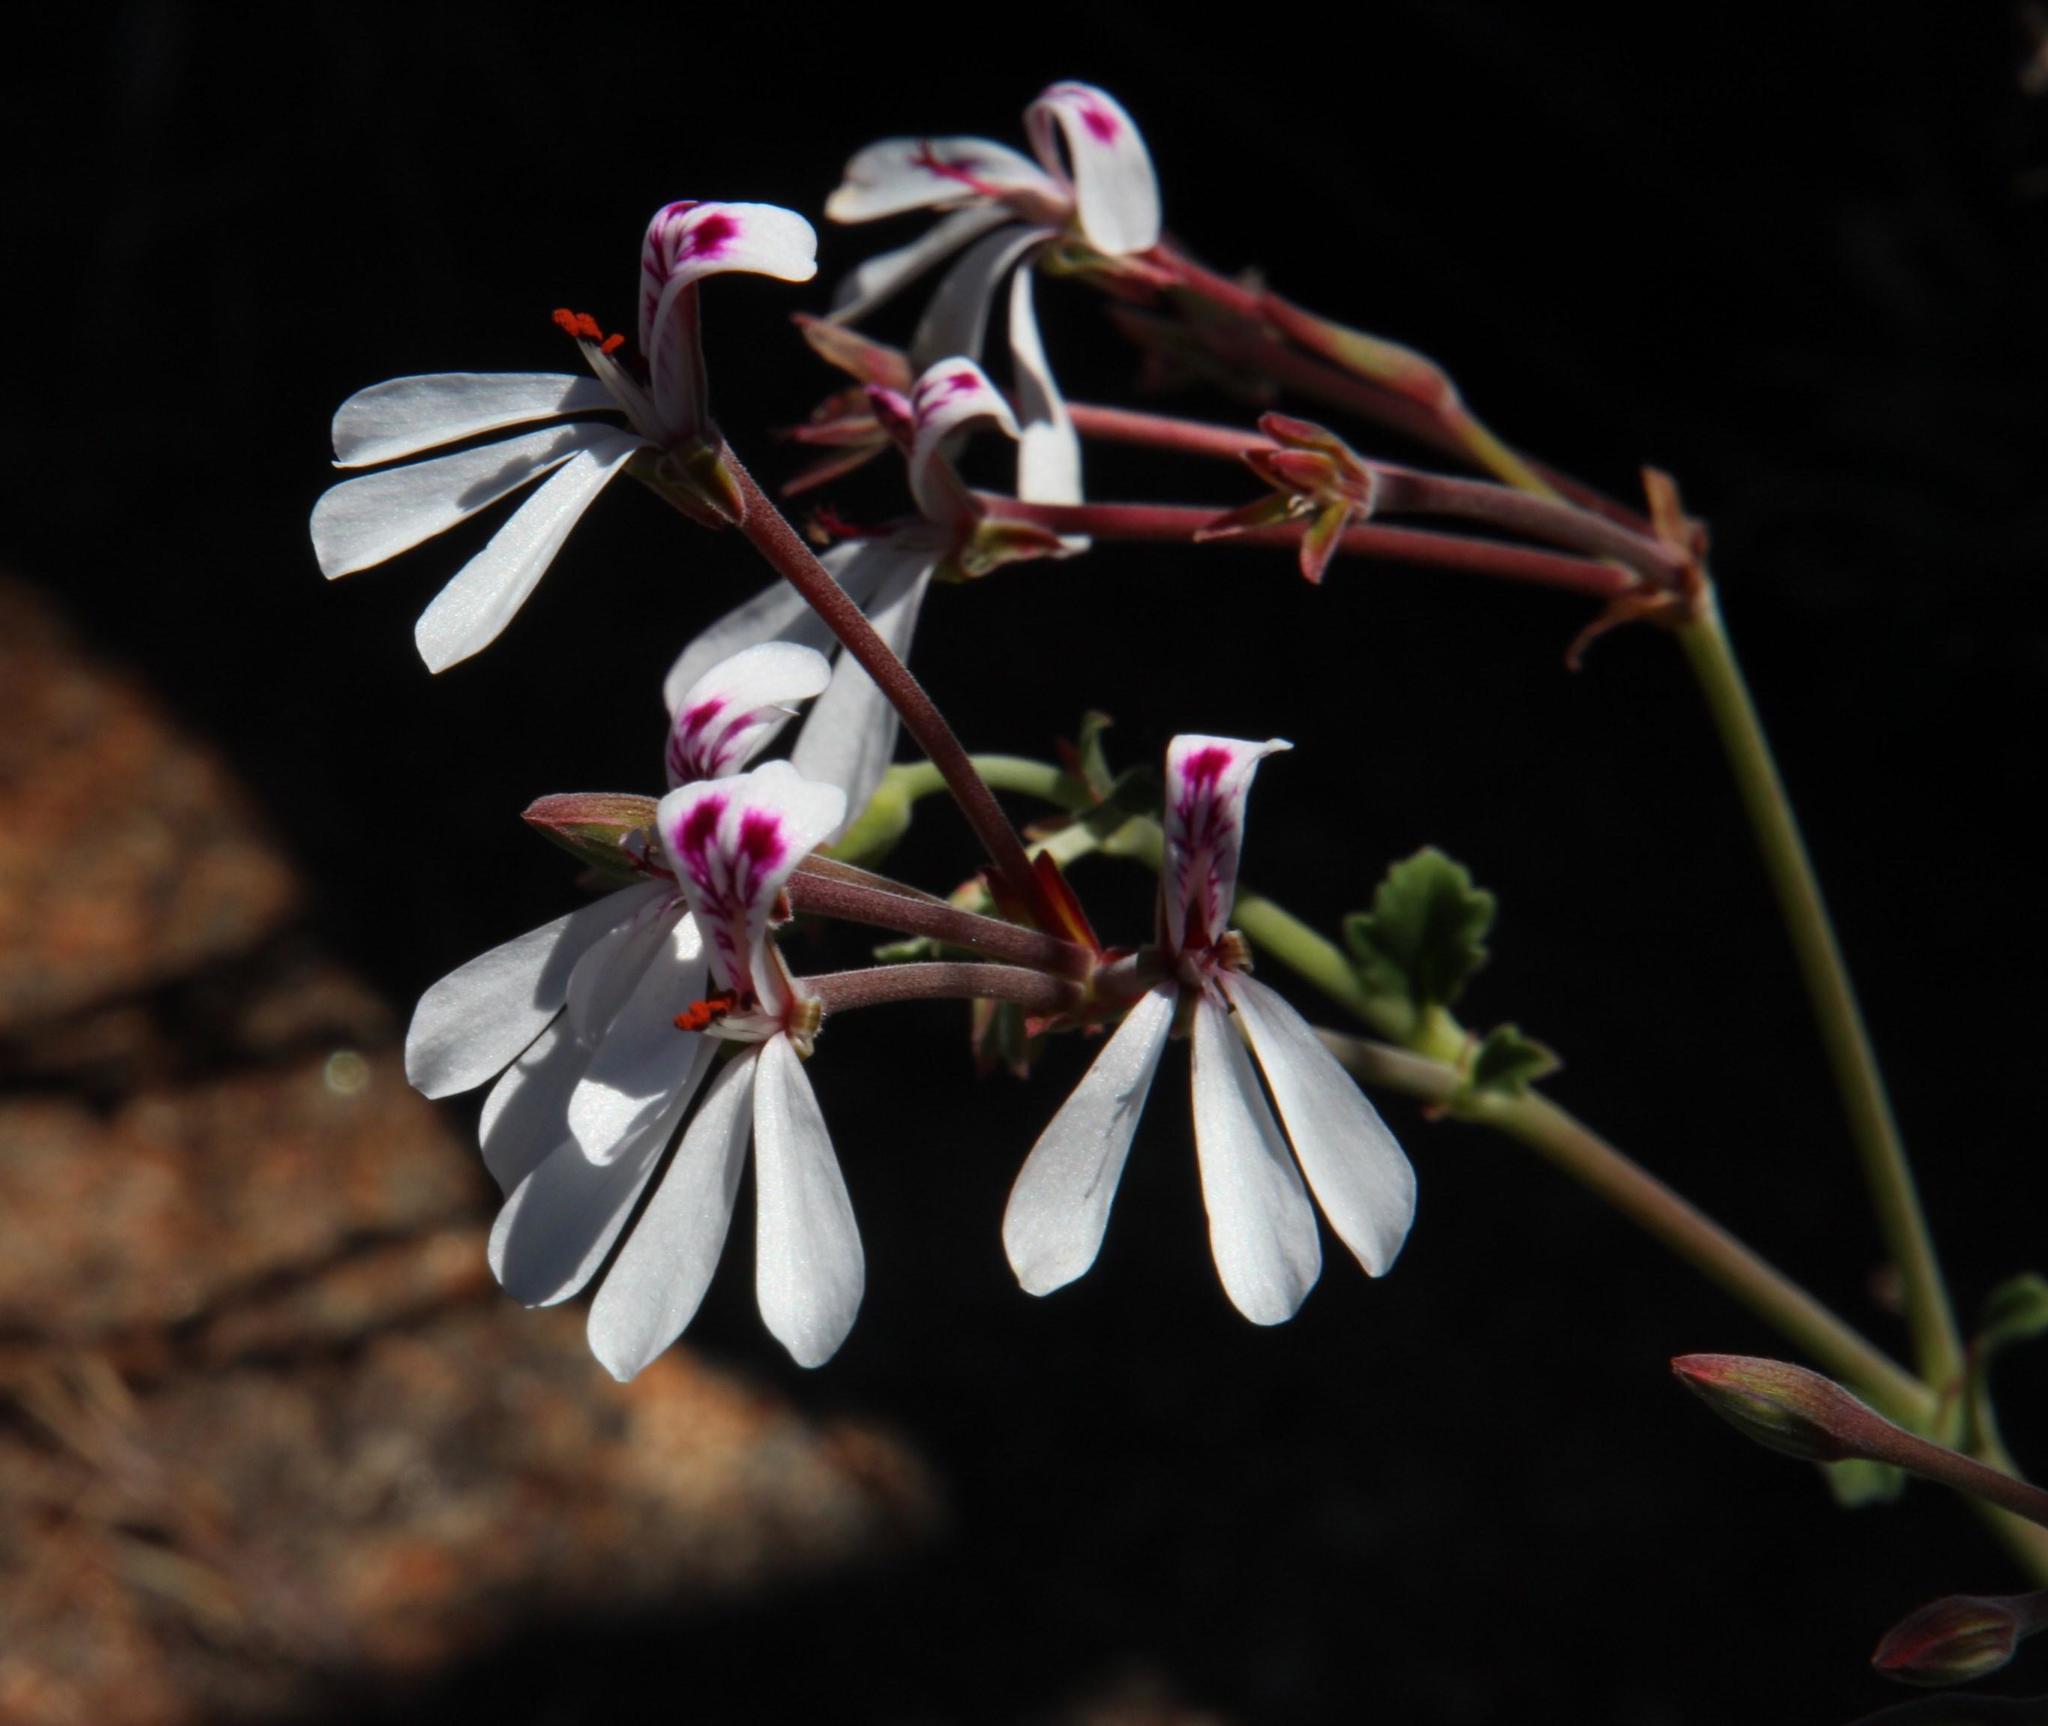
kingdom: Plantae
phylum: Tracheophyta
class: Magnoliopsida
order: Geraniales
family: Geraniaceae
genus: Pelargonium
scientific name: Pelargonium dichondrifolium
